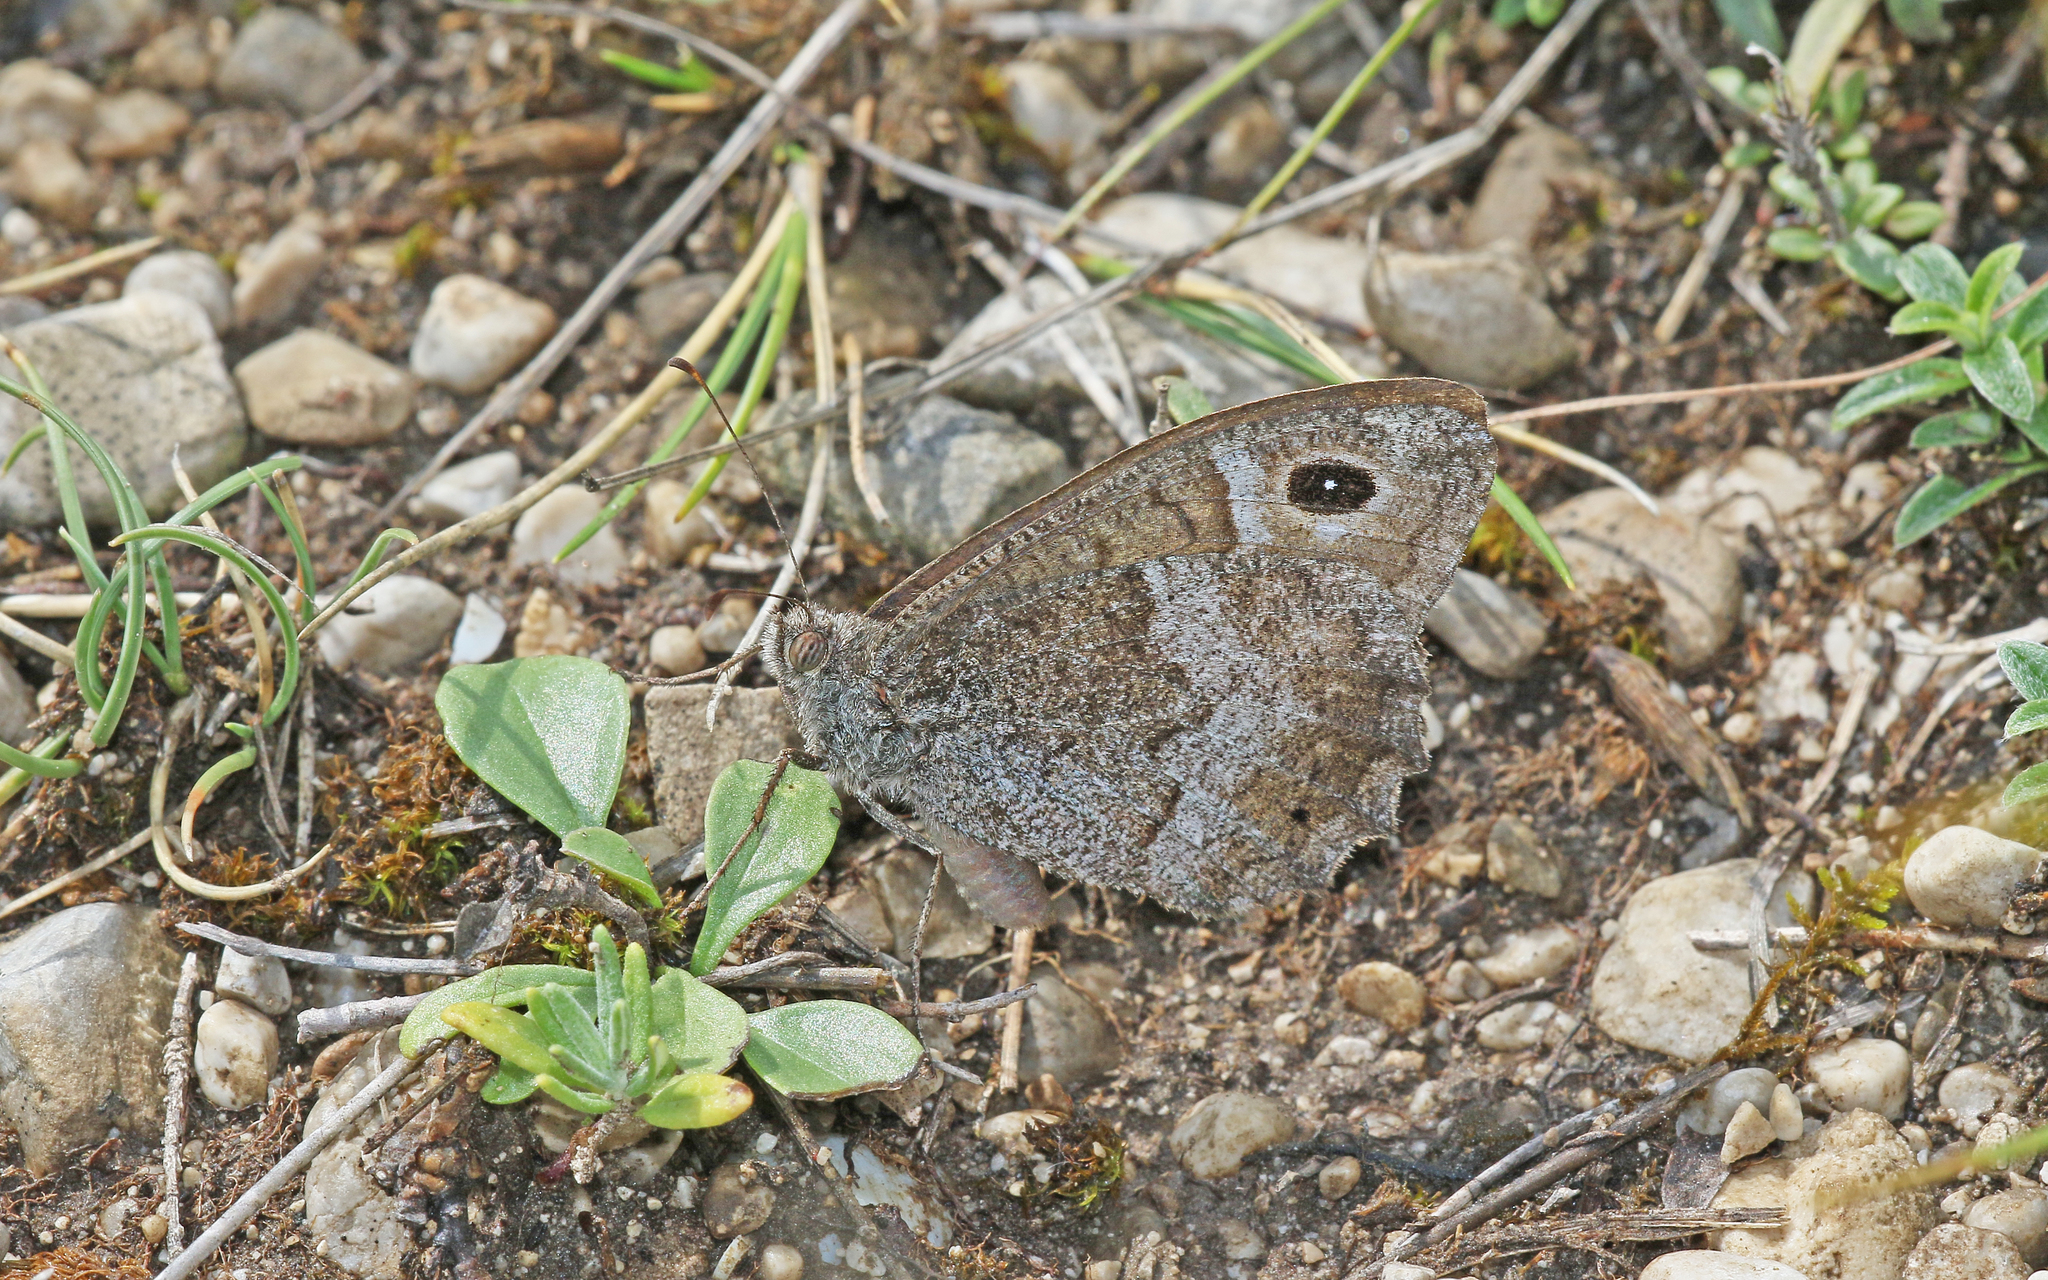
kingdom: Animalia
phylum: Arthropoda
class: Insecta
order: Lepidoptera
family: Nymphalidae
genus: Hipparchia
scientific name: Hipparchia statilinus
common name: Tree grayling
